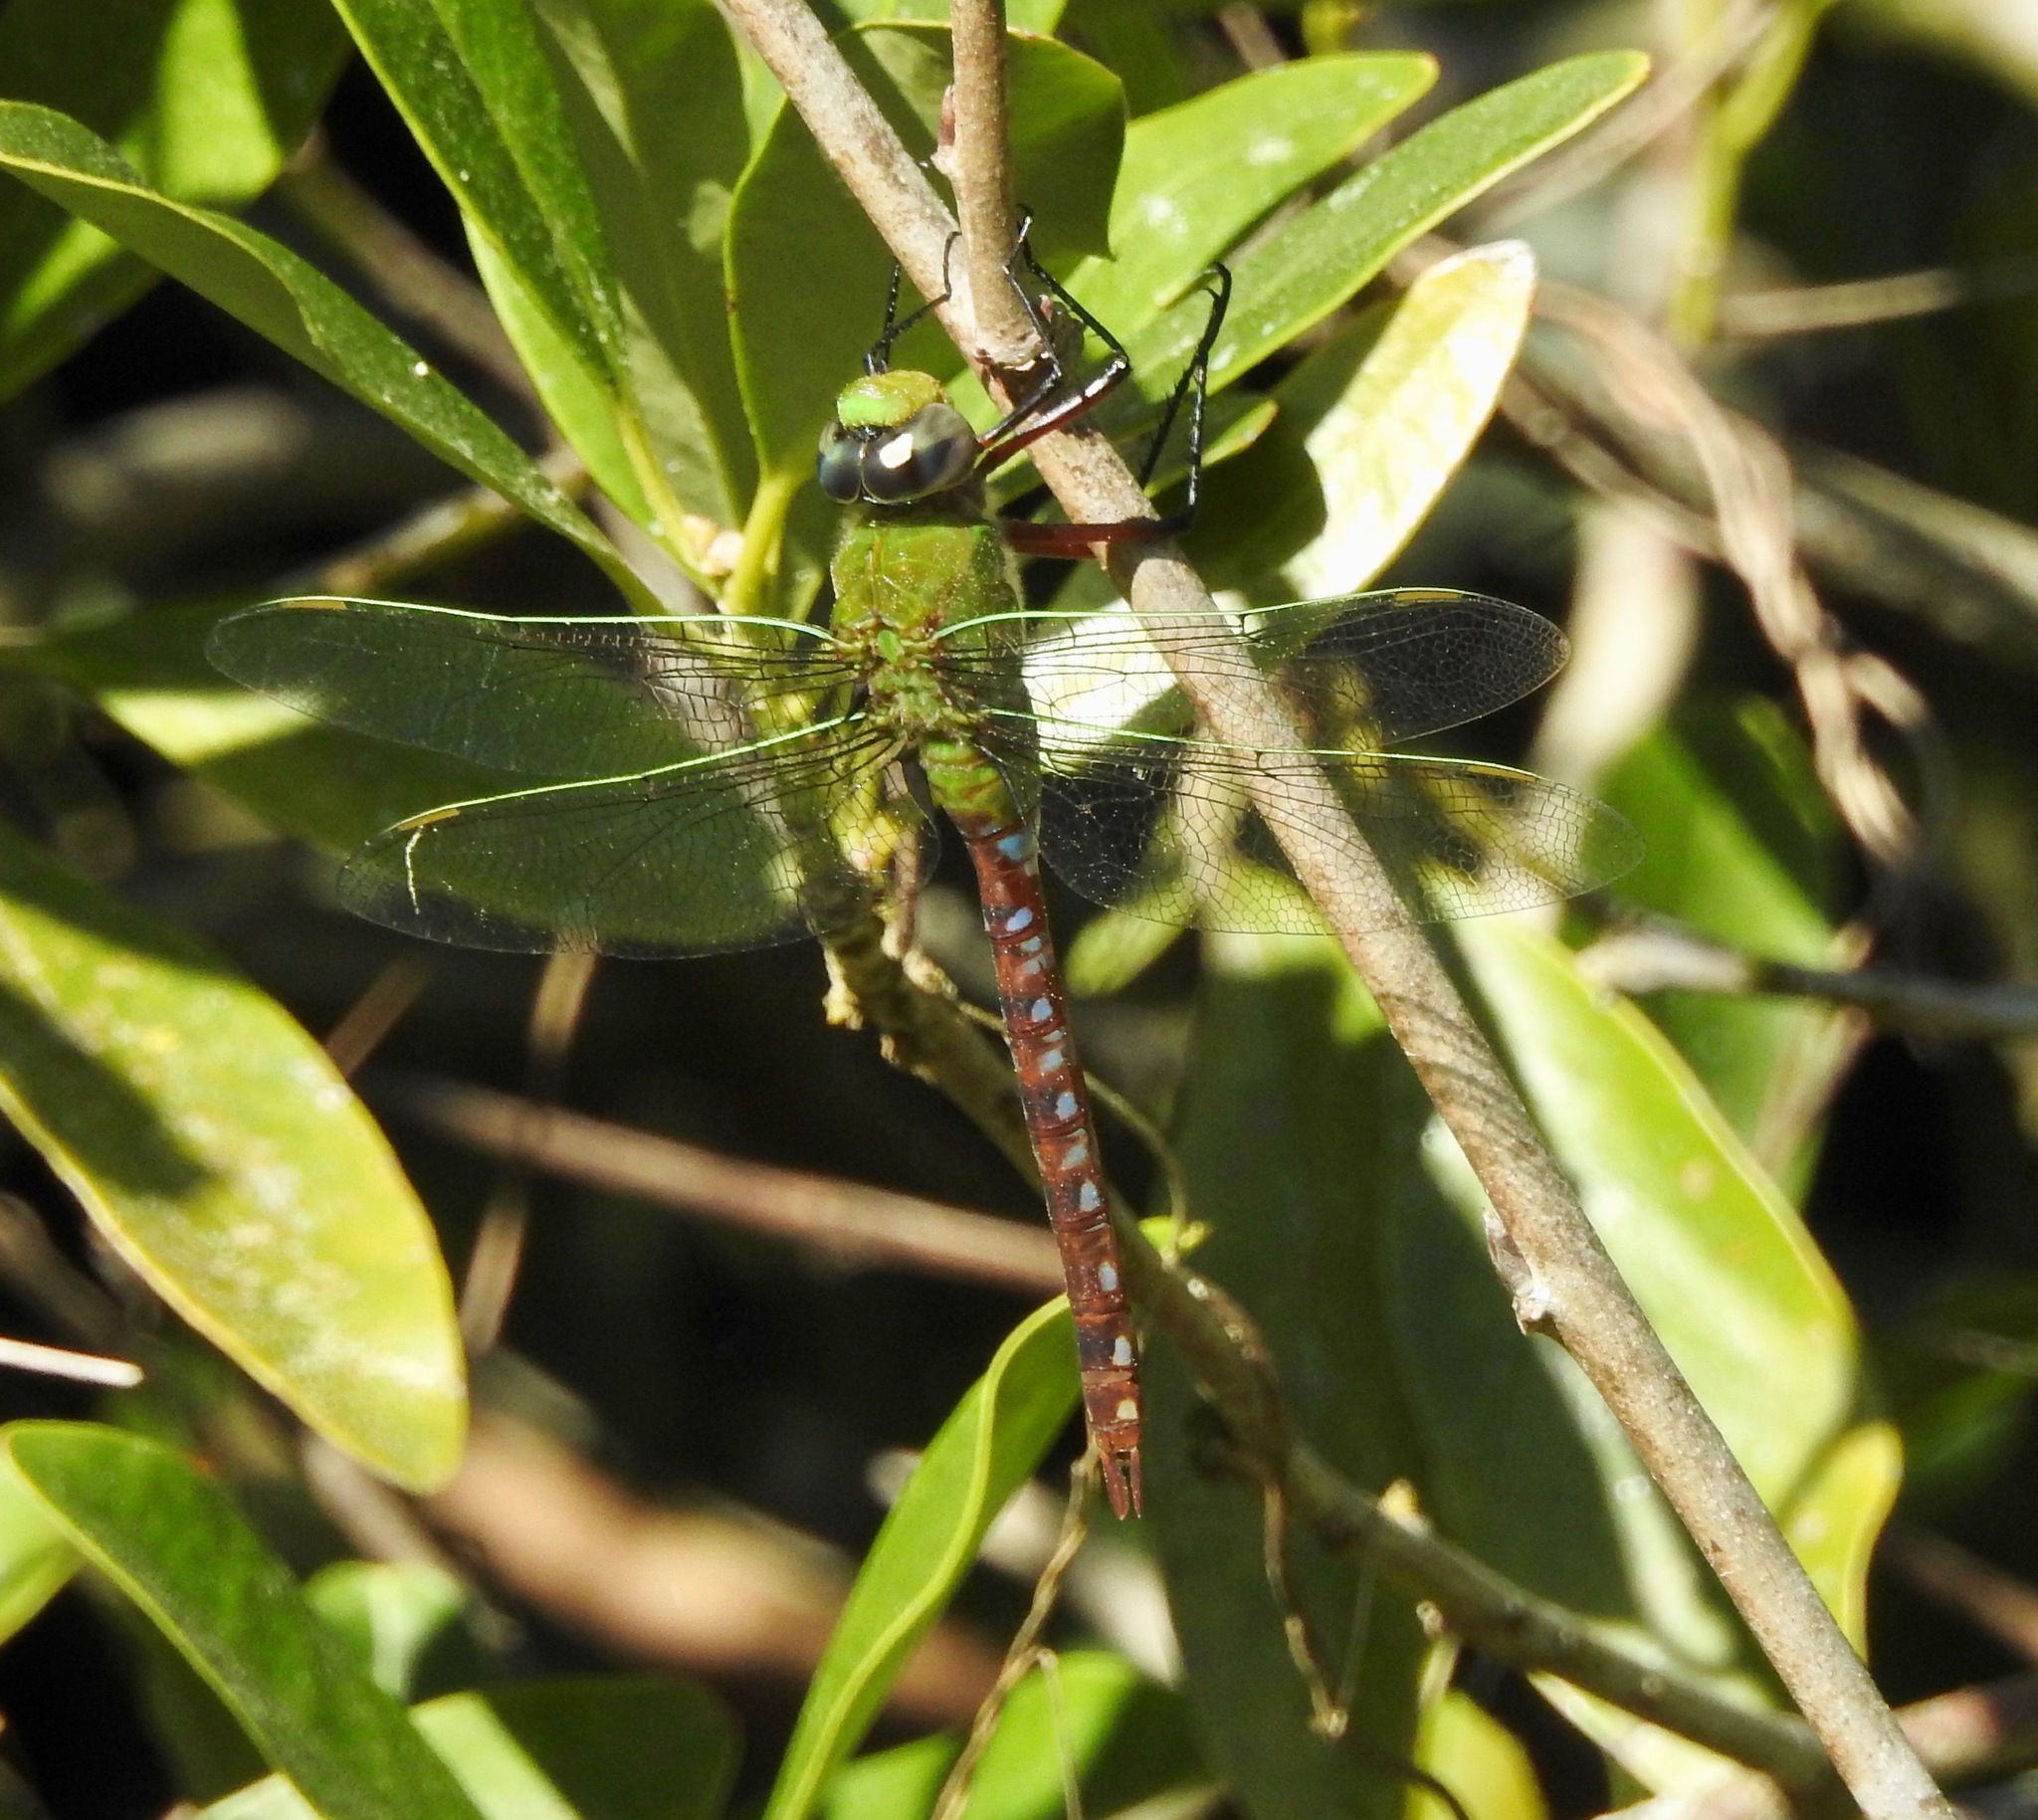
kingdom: Animalia
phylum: Arthropoda
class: Insecta
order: Odonata
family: Aeshnidae
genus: Anax
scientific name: Anax longipes
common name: Comet darner
